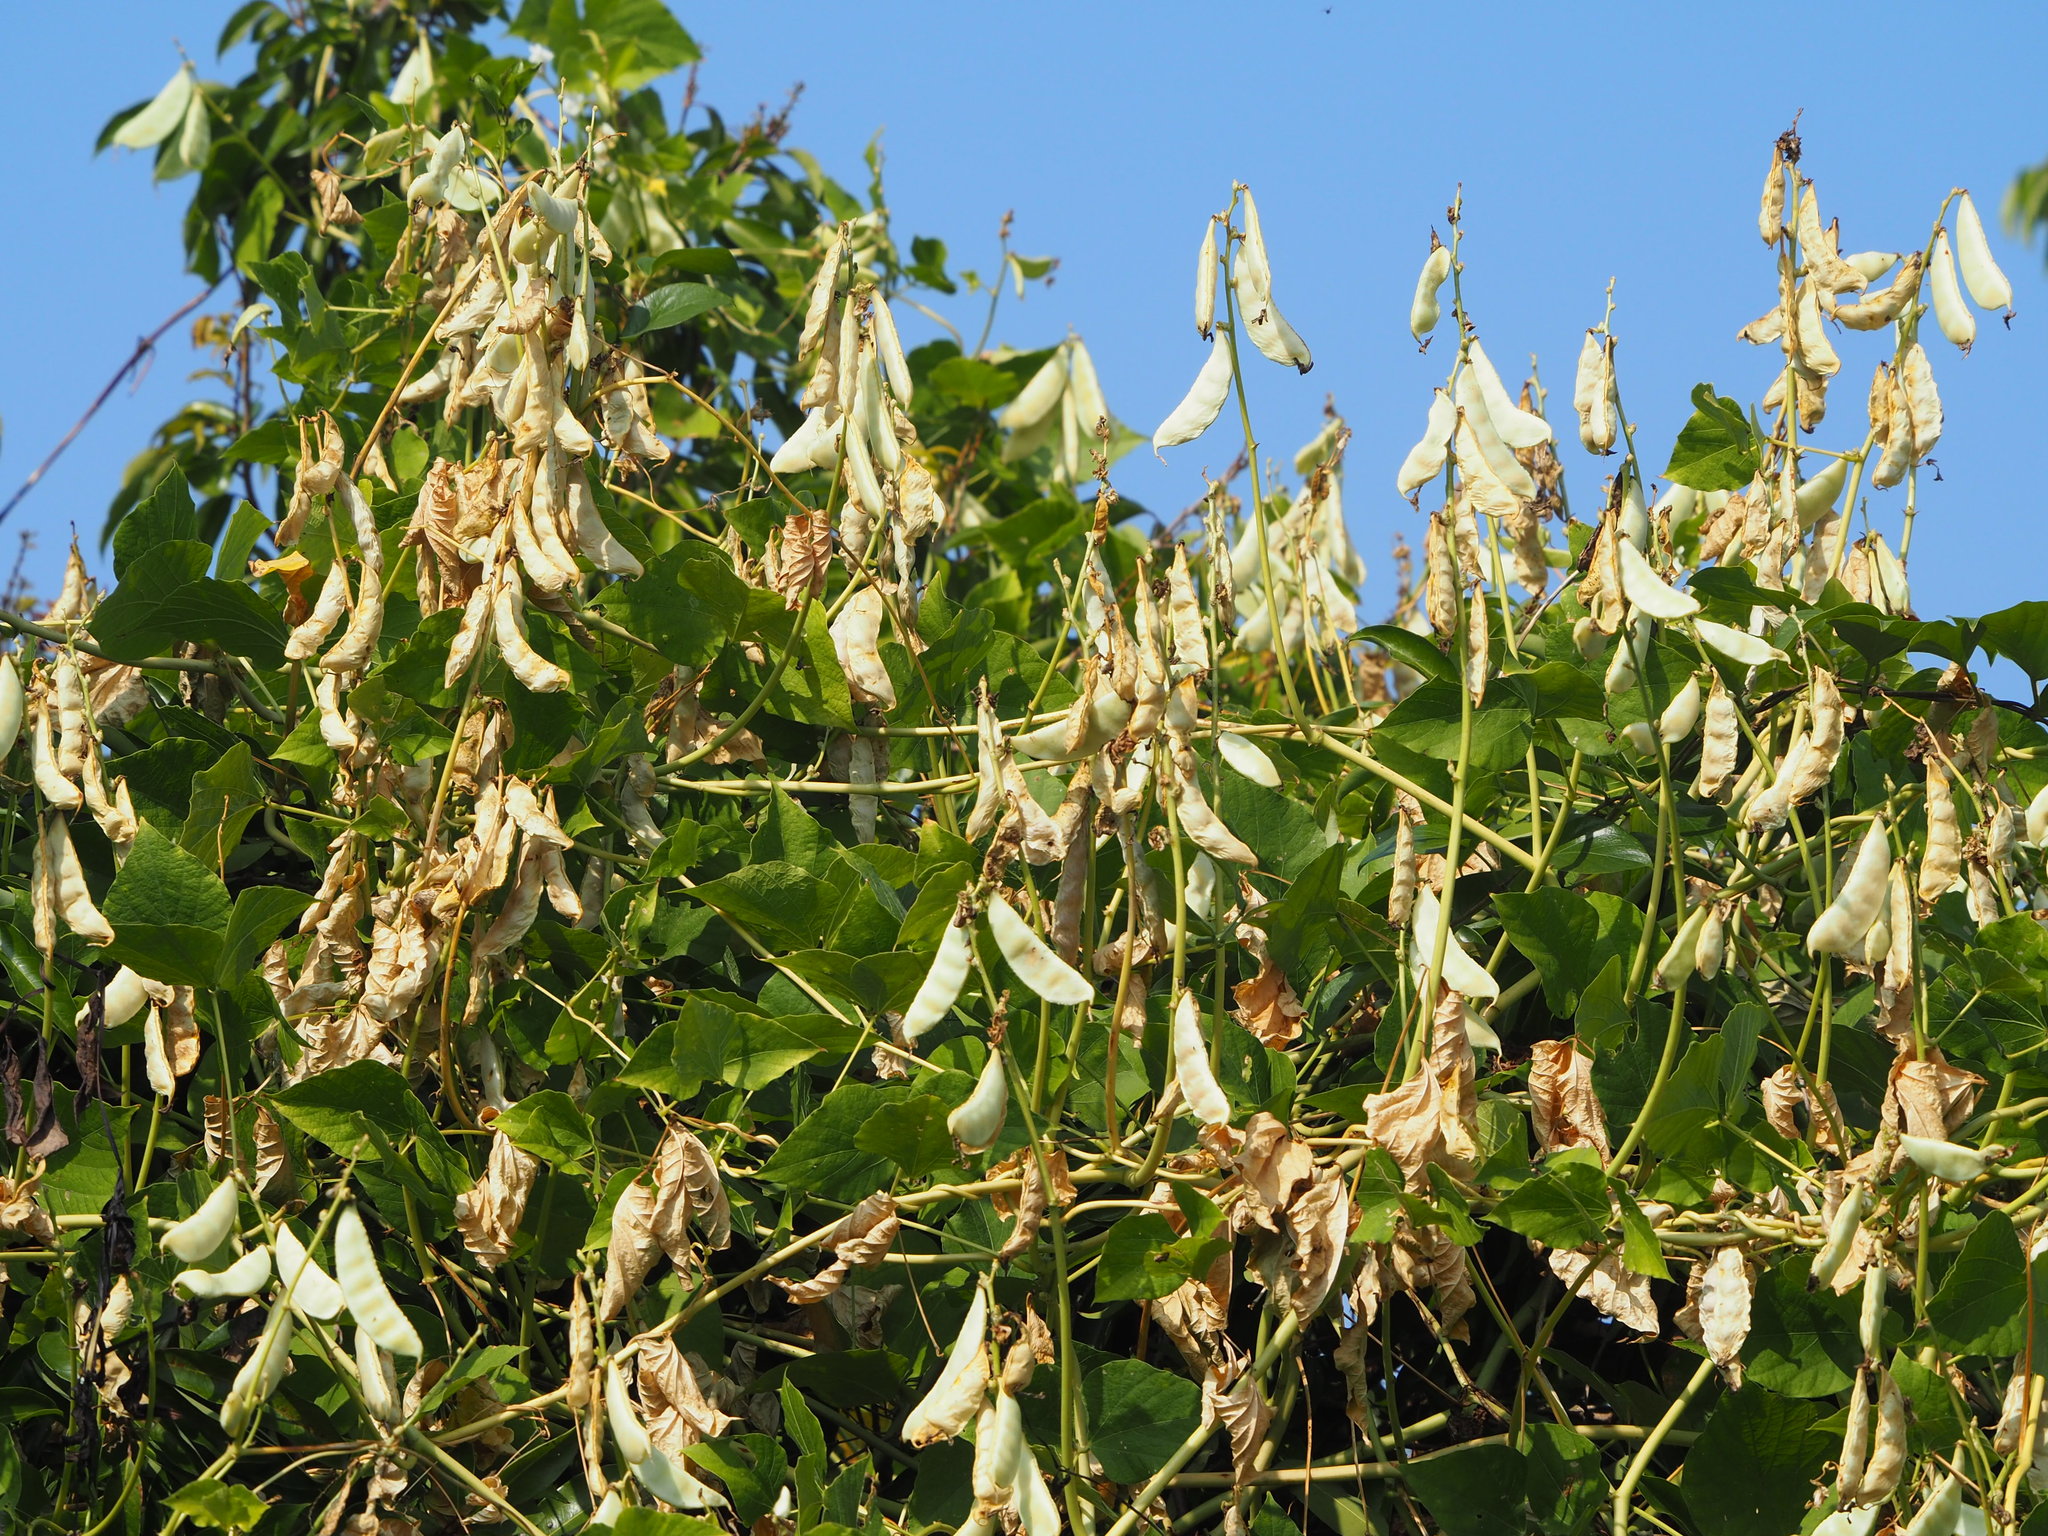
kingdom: Plantae
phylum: Tracheophyta
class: Magnoliopsida
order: Fabales
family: Fabaceae
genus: Lablab
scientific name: Lablab purpureus
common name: Lablab-bean
